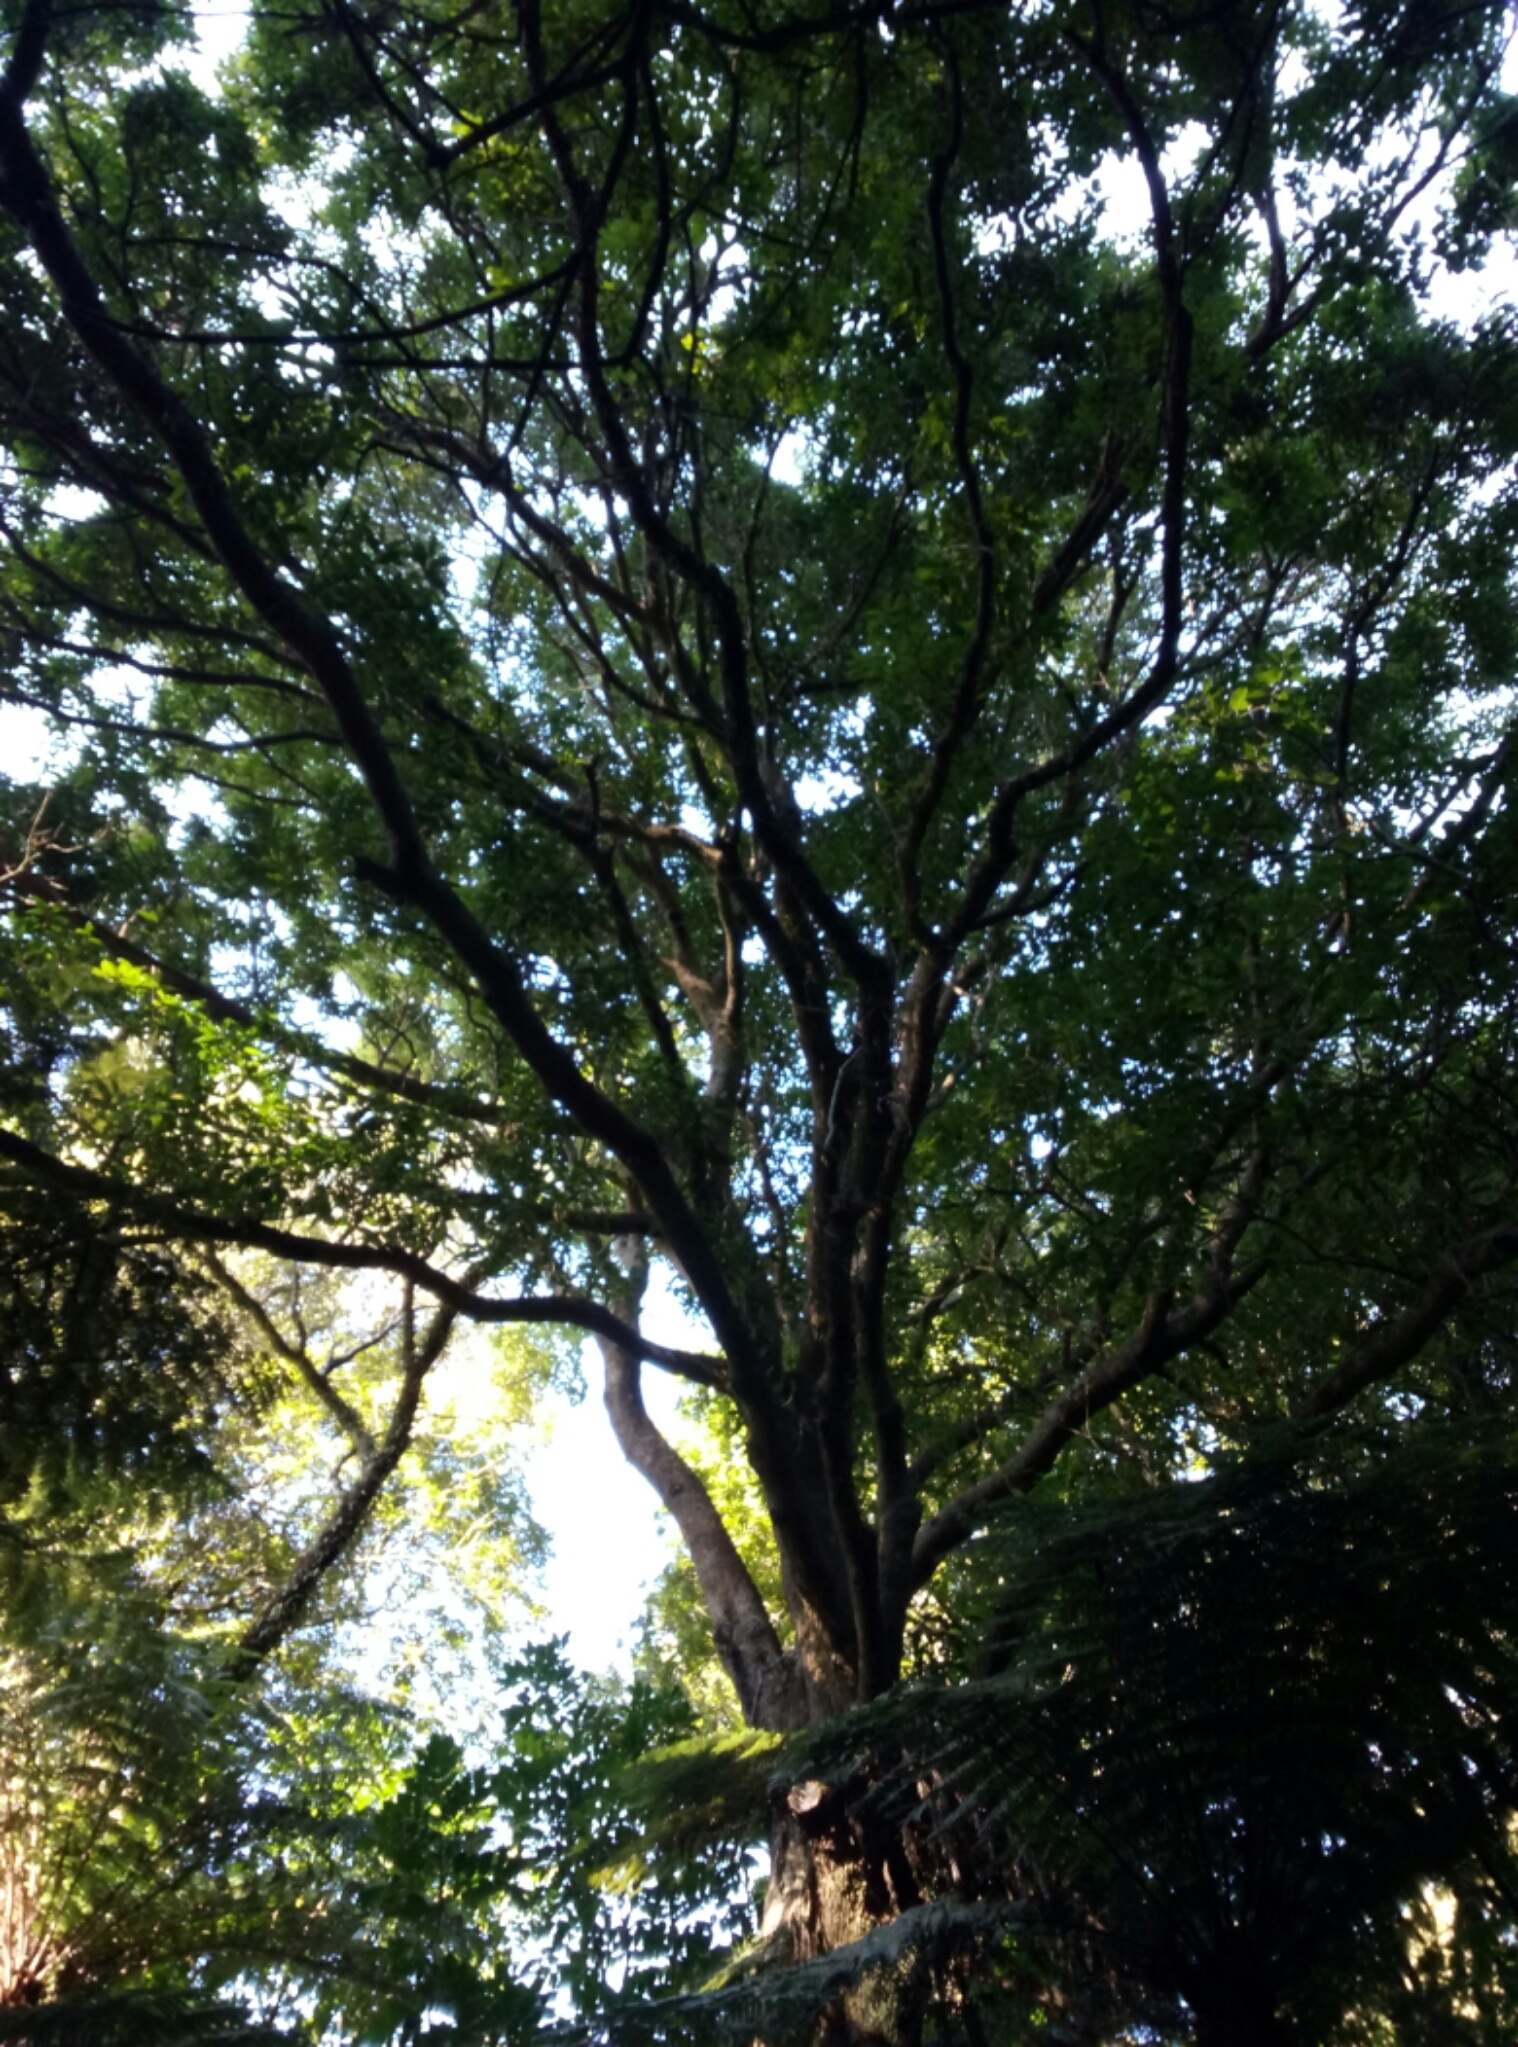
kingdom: Plantae
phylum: Tracheophyta
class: Magnoliopsida
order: Lamiales
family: Oleaceae
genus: Nestegis
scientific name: Nestegis cunninghamii
